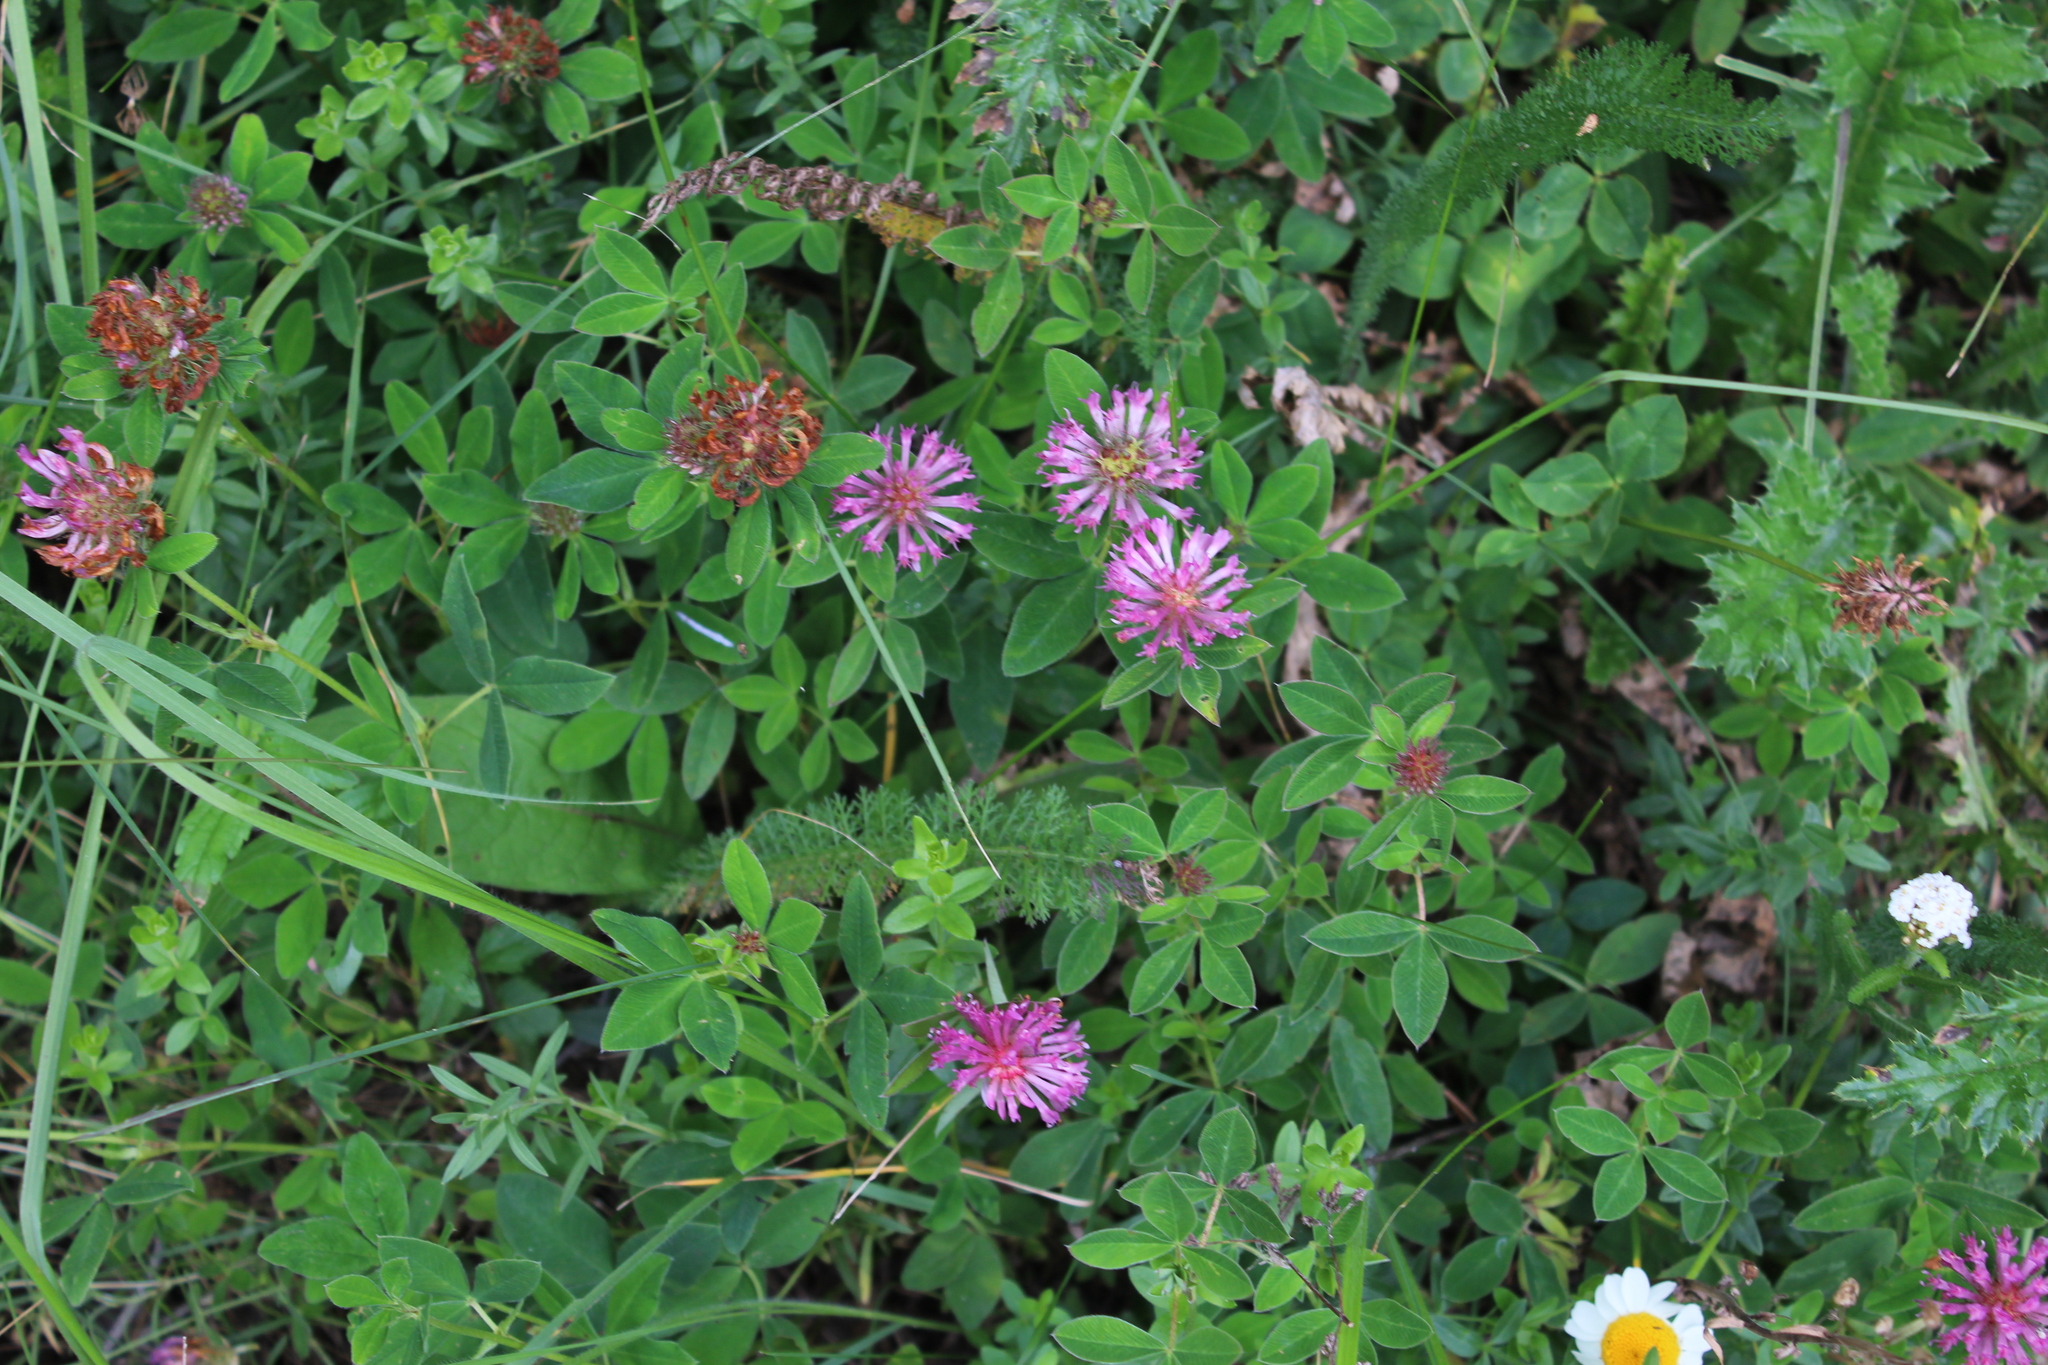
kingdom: Plantae
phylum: Tracheophyta
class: Magnoliopsida
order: Fabales
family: Fabaceae
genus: Trifolium
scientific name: Trifolium medium
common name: Zigzag clover
